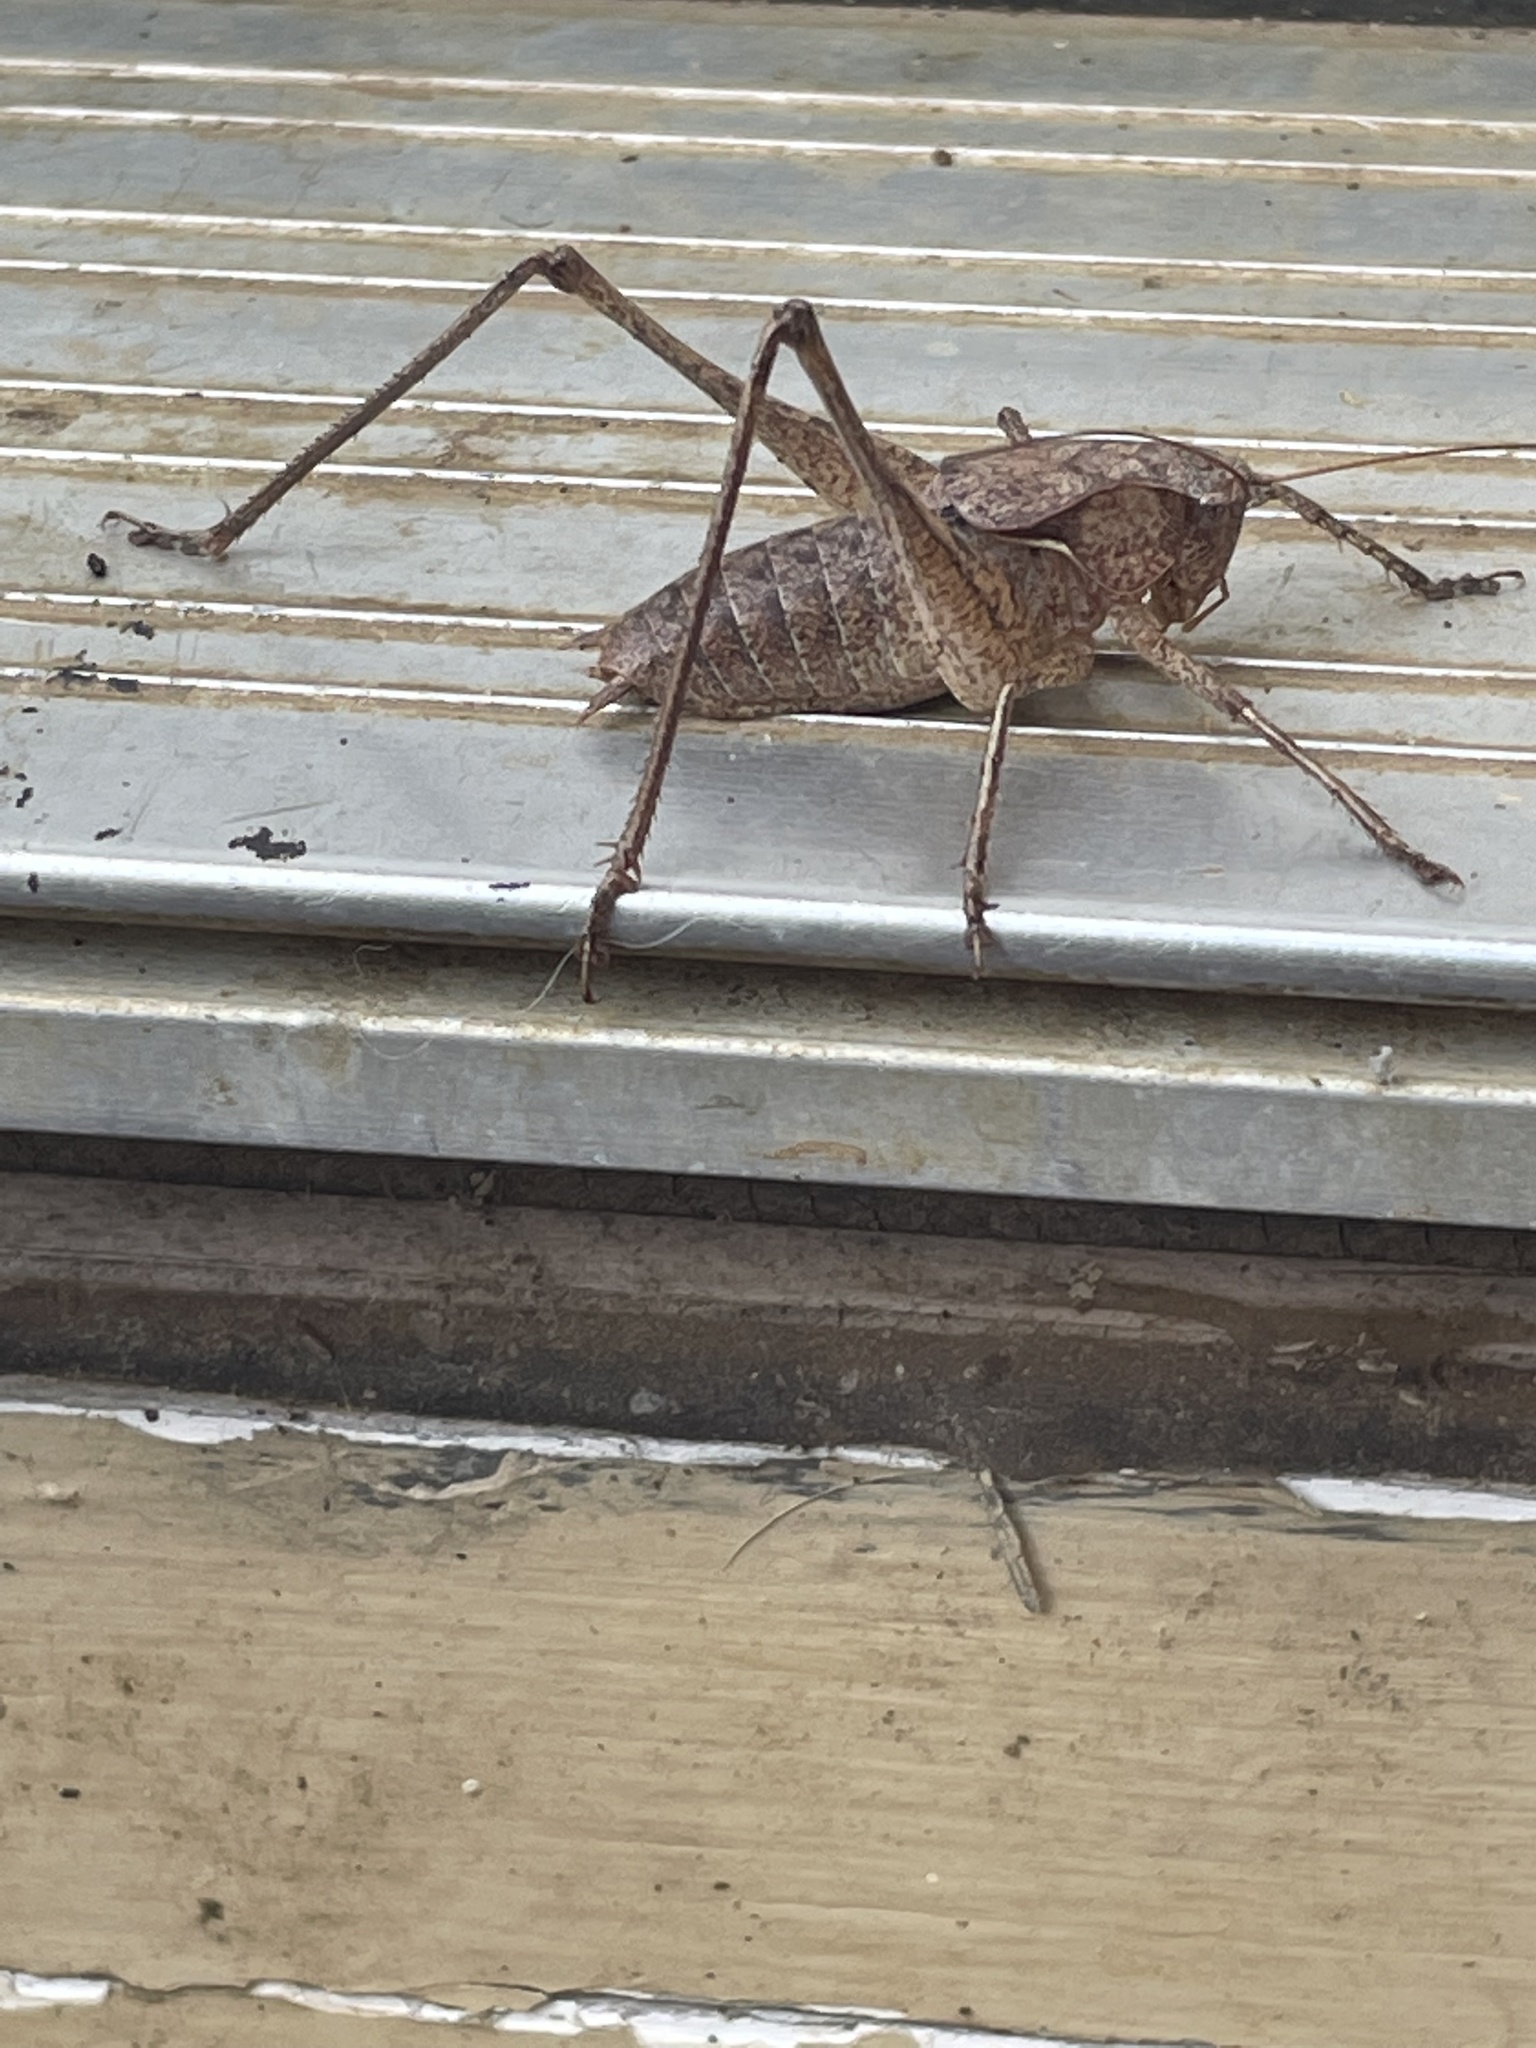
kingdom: Animalia
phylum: Arthropoda
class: Insecta
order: Orthoptera
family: Tettigoniidae
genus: Atlanticus
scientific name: Atlanticus americanus
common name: American shield-bearer
